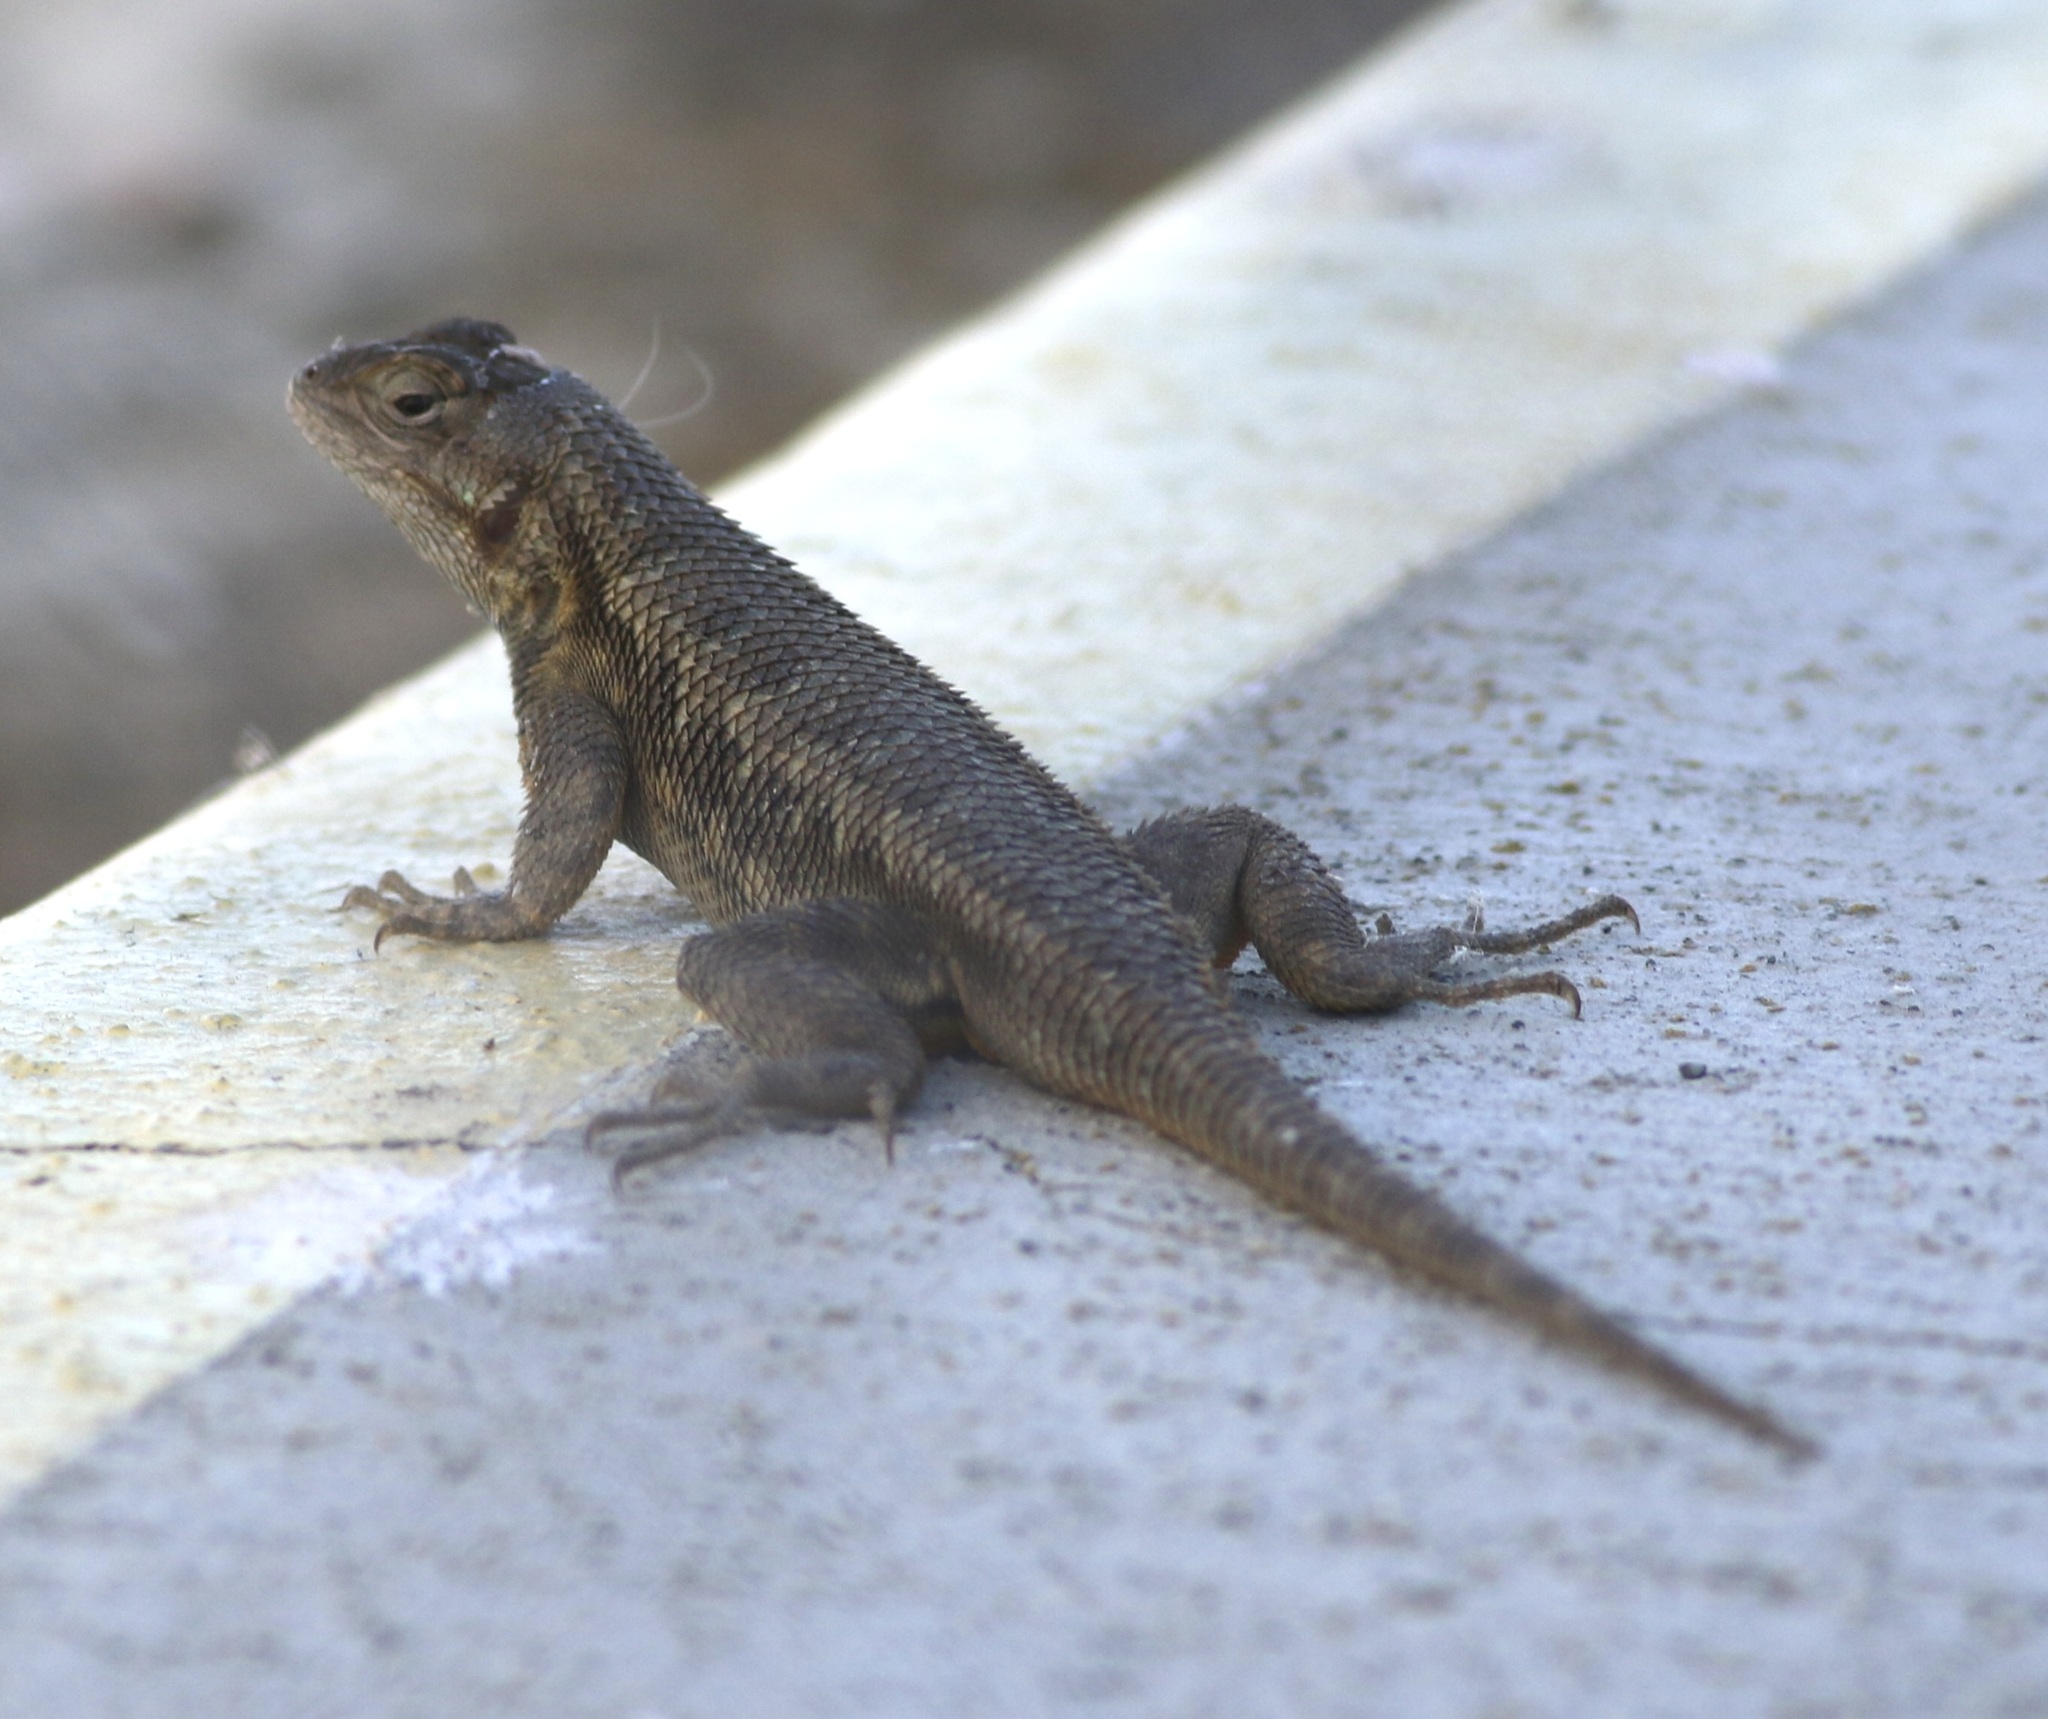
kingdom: Animalia
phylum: Chordata
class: Squamata
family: Phrynosomatidae
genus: Sceloporus
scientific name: Sceloporus occidentalis
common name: Western fence lizard
